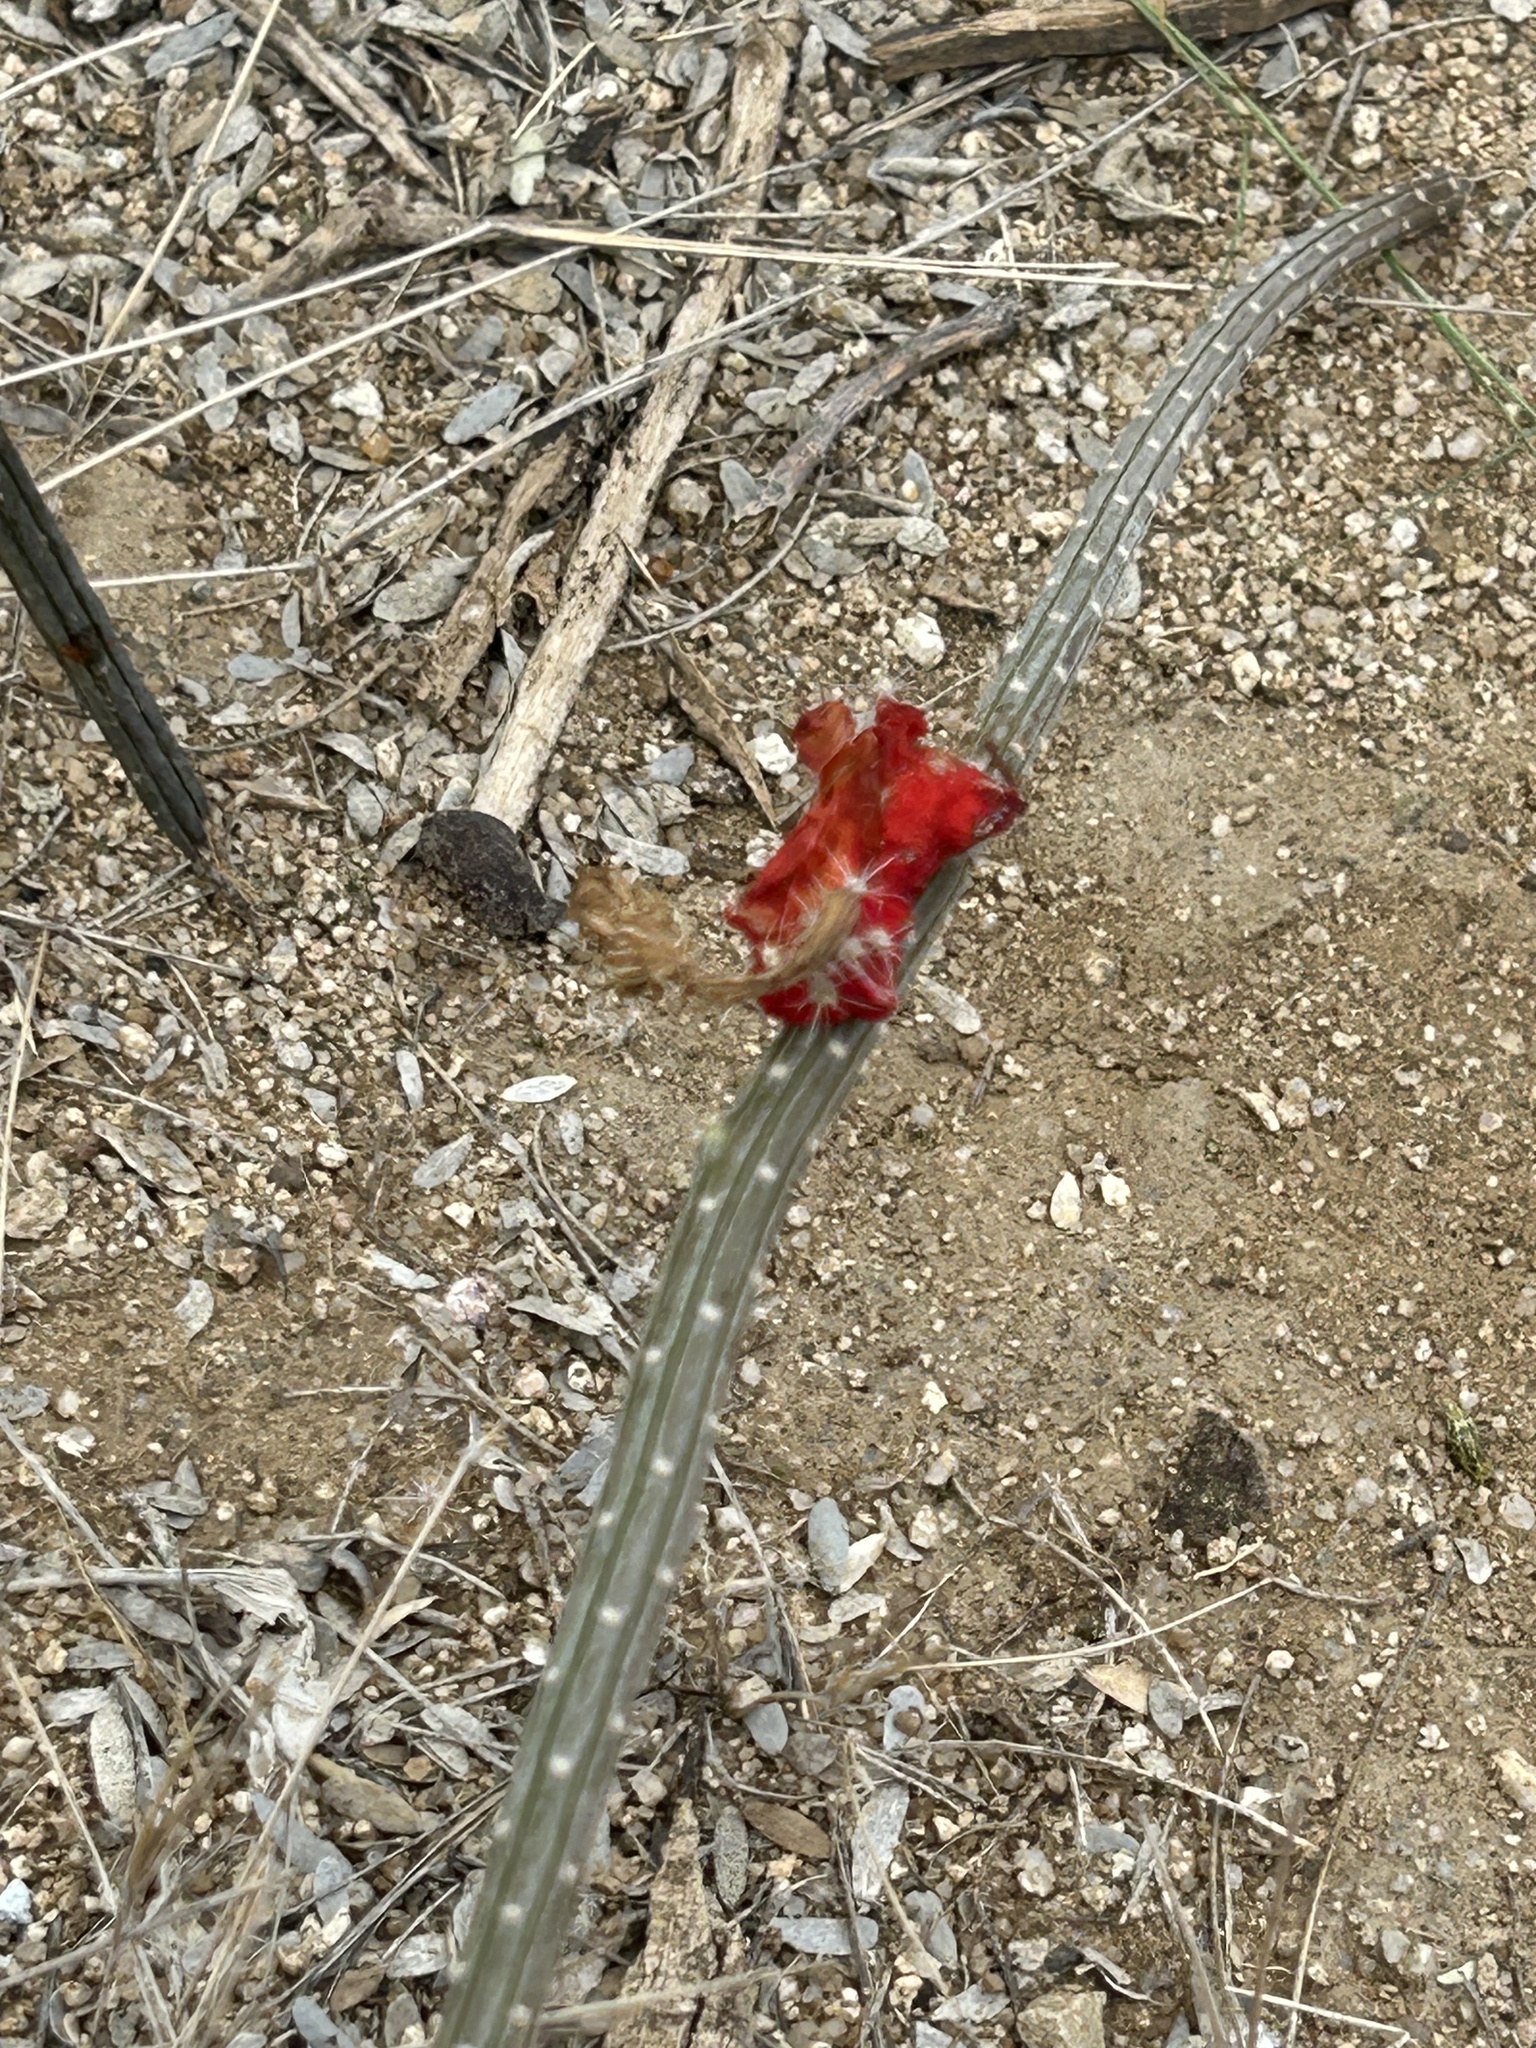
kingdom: Plantae
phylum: Tracheophyta
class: Magnoliopsida
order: Caryophyllales
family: Cactaceae
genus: Peniocereus
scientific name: Peniocereus striatus
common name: Gearstem cactus
